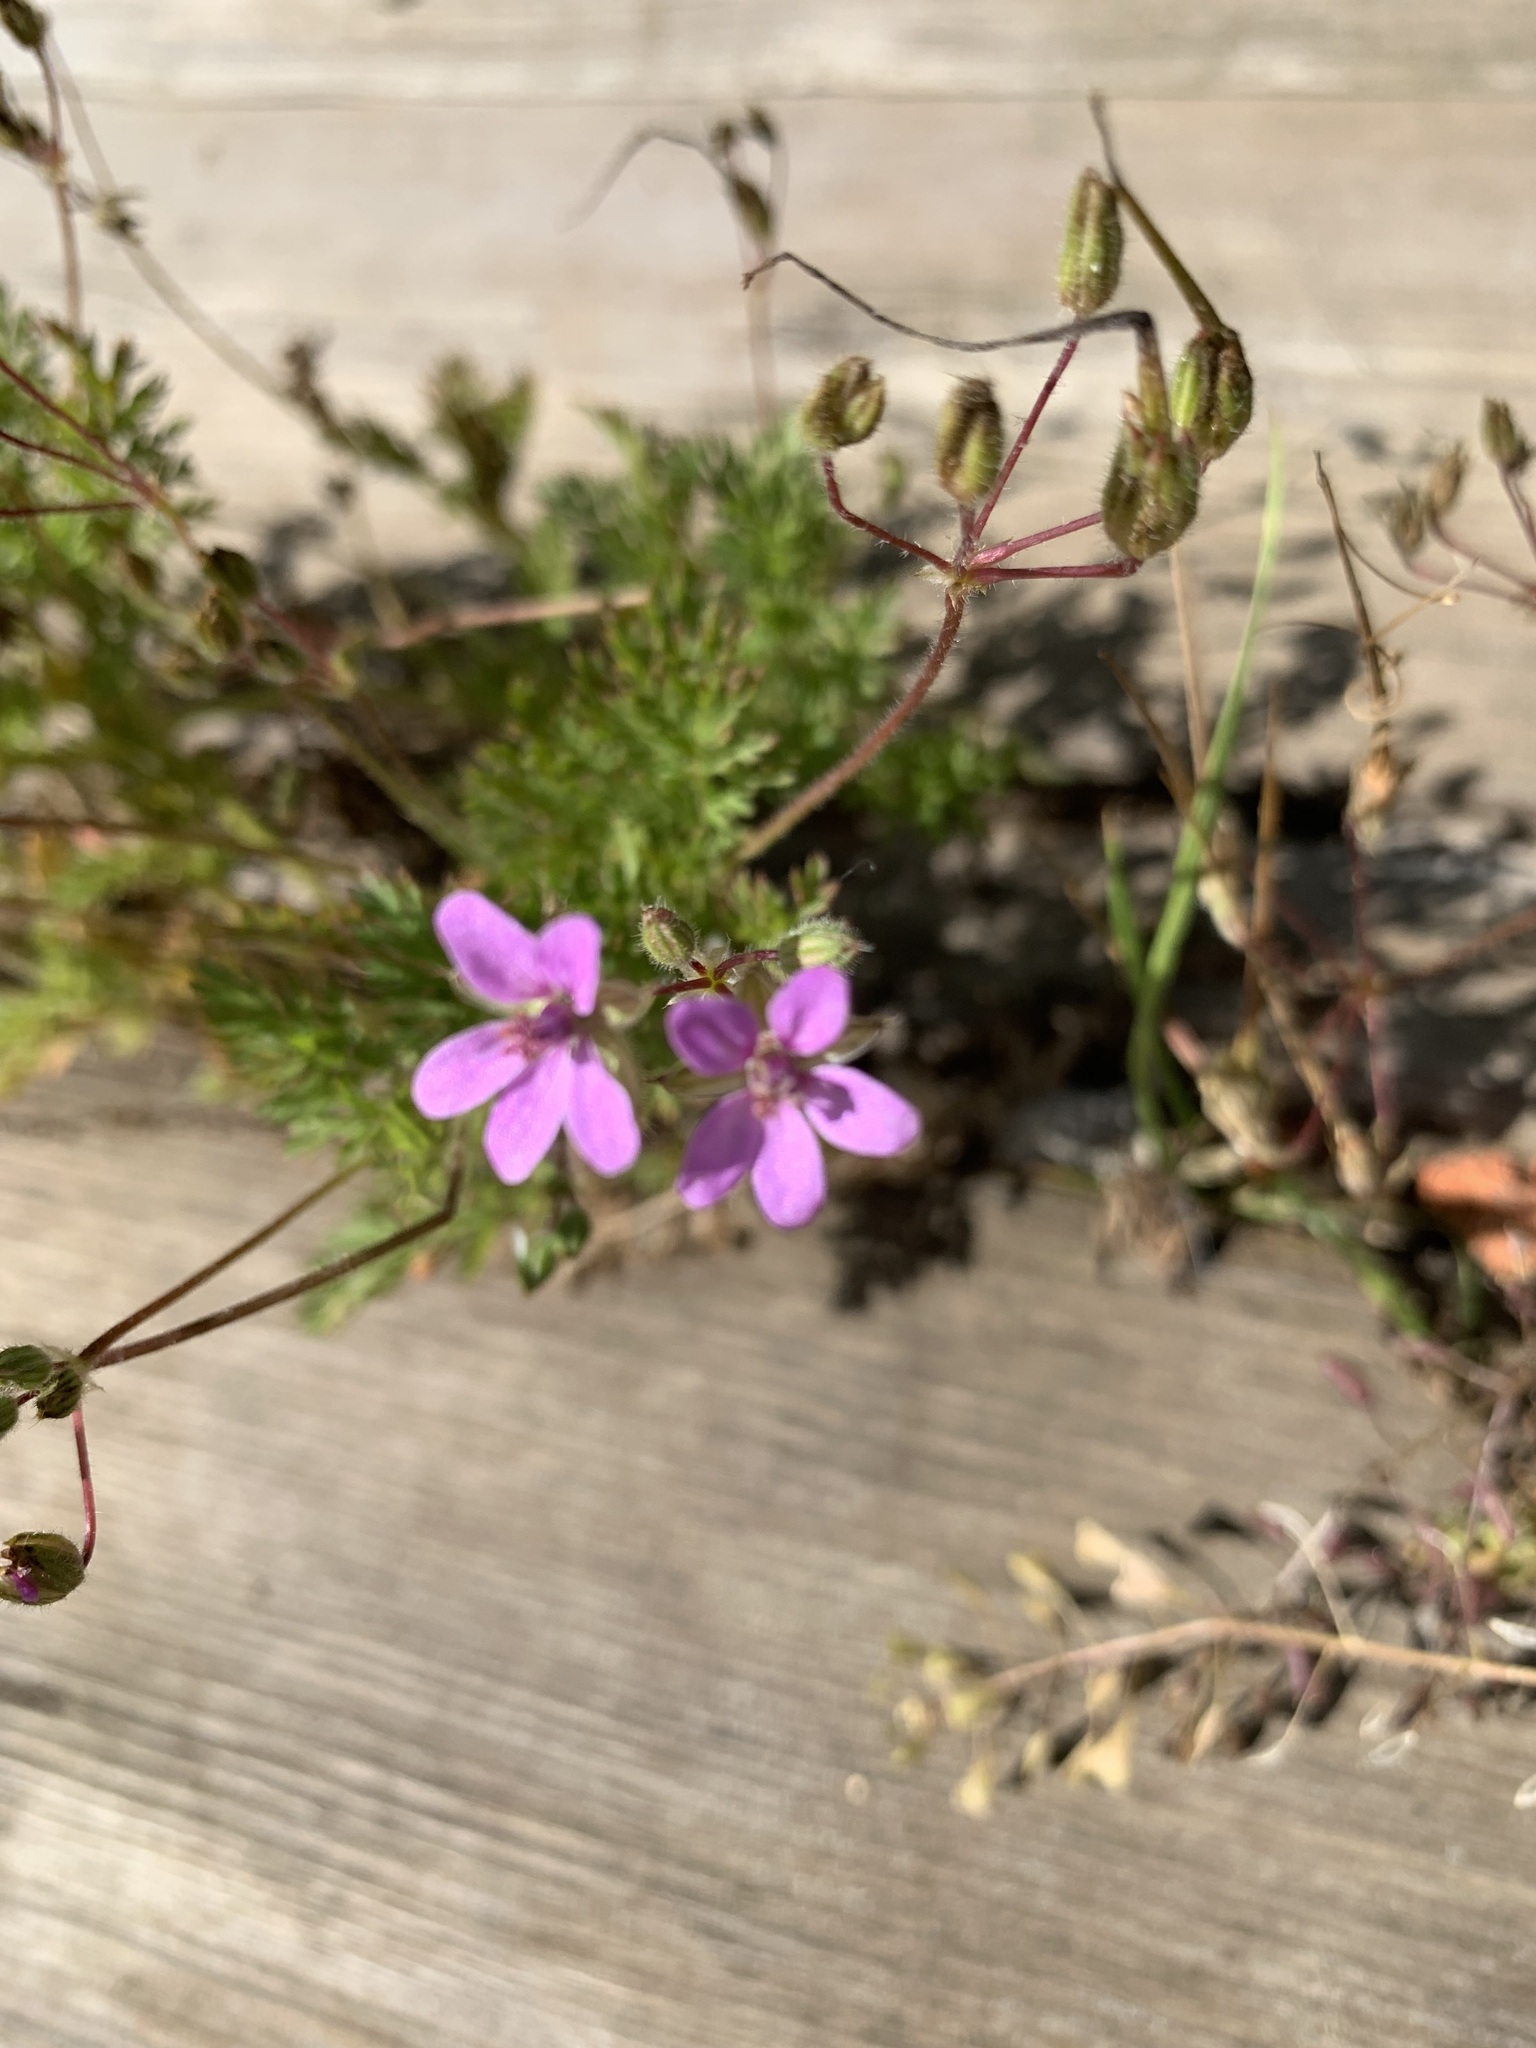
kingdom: Plantae
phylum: Tracheophyta
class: Magnoliopsida
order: Geraniales
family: Geraniaceae
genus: Erodium
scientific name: Erodium cicutarium
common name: Common stork's-bill
